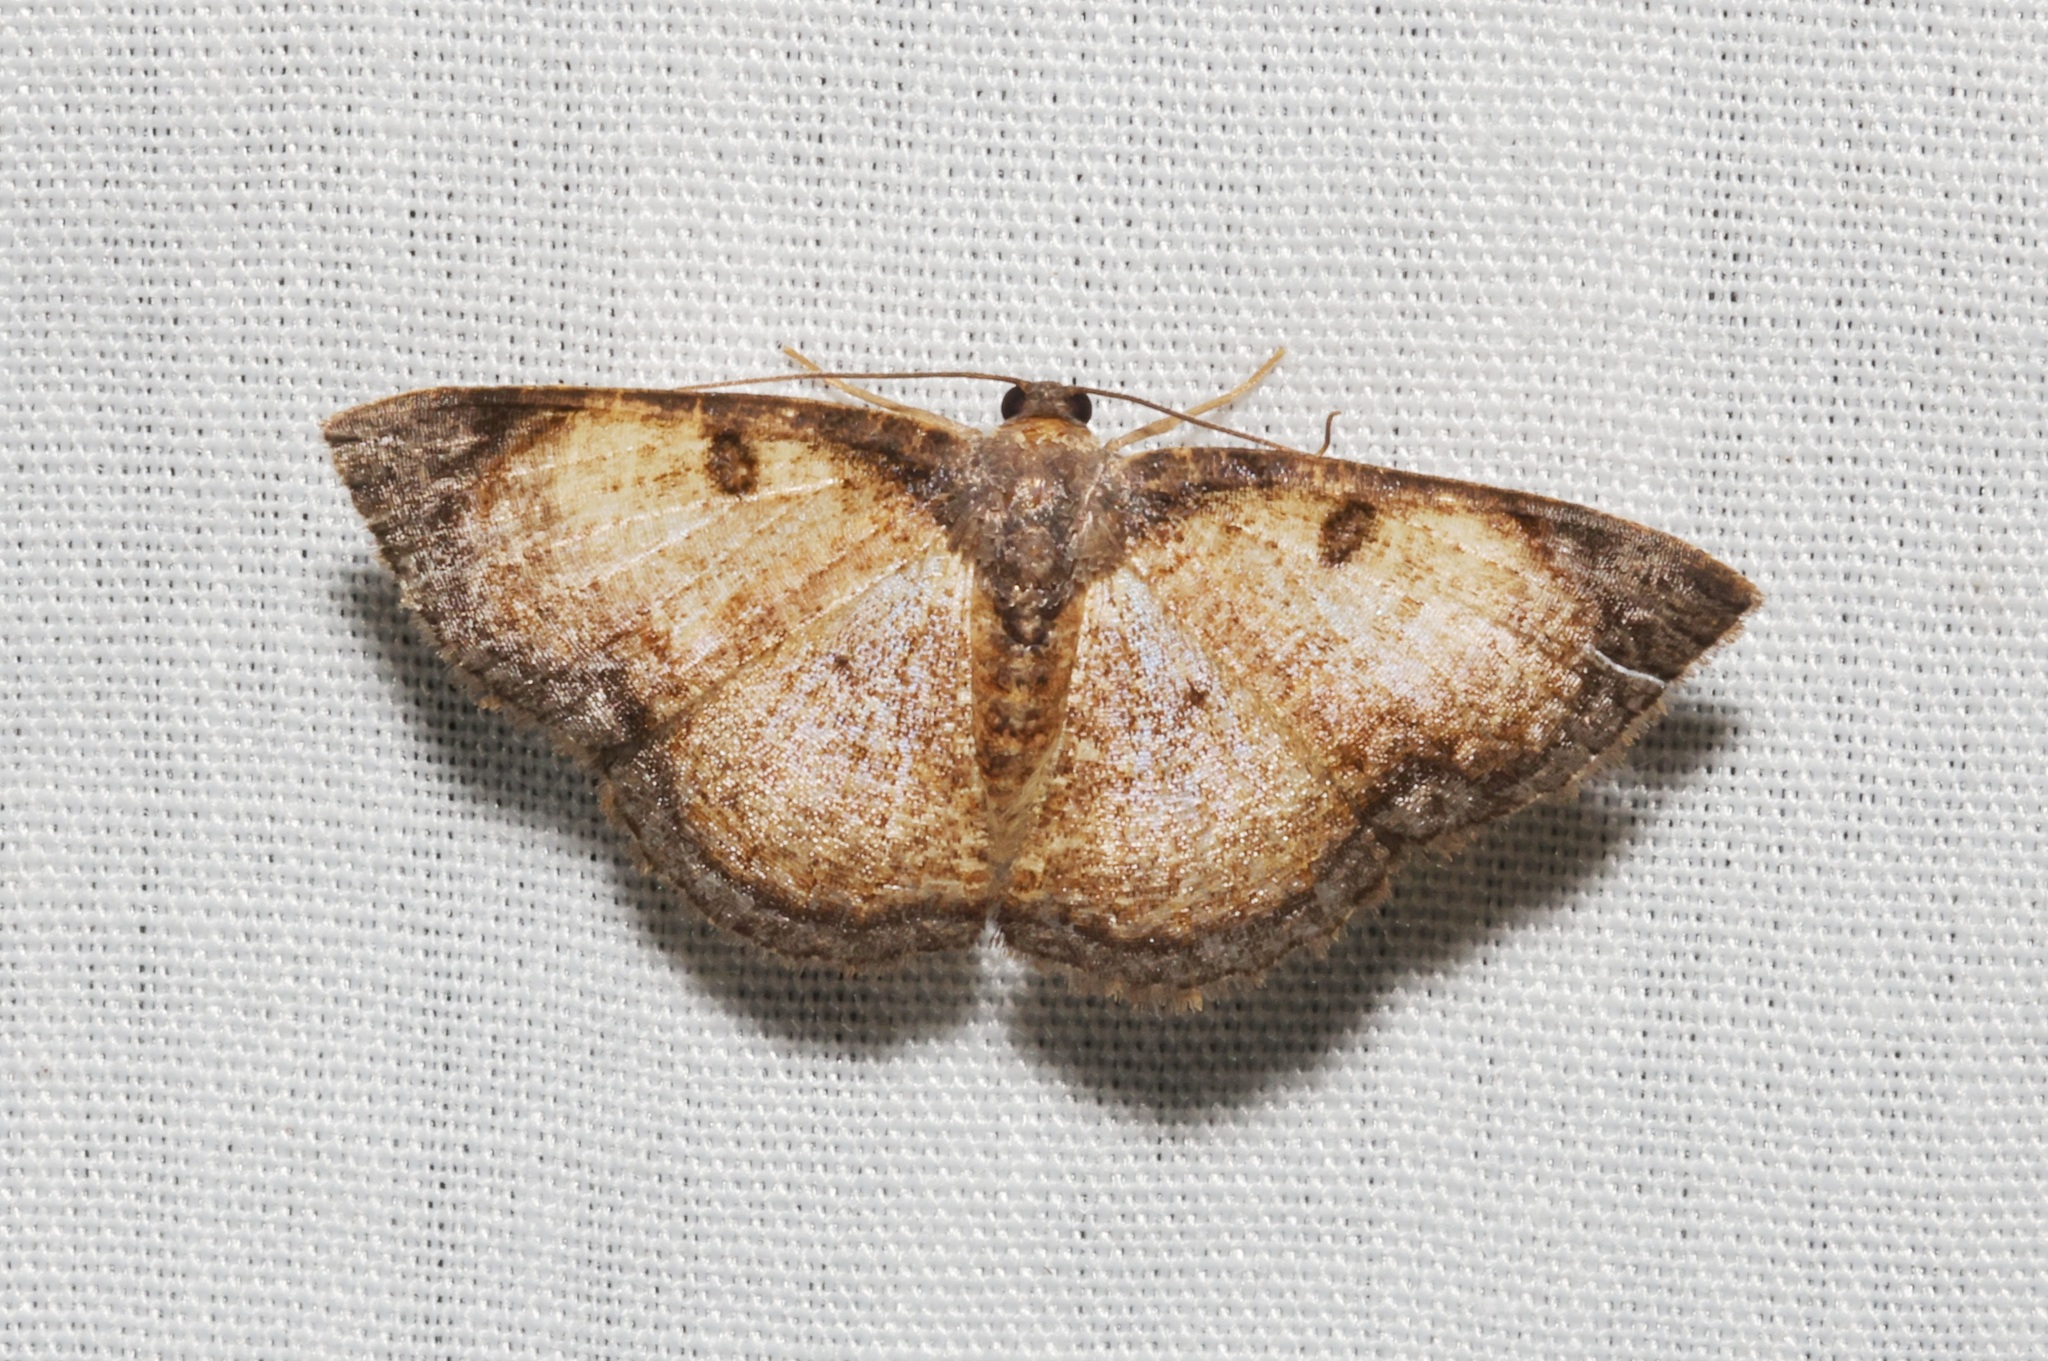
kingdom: Animalia
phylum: Arthropoda
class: Insecta
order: Lepidoptera
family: Geometridae
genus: Hydatocapnia
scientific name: Hydatocapnia gemina
